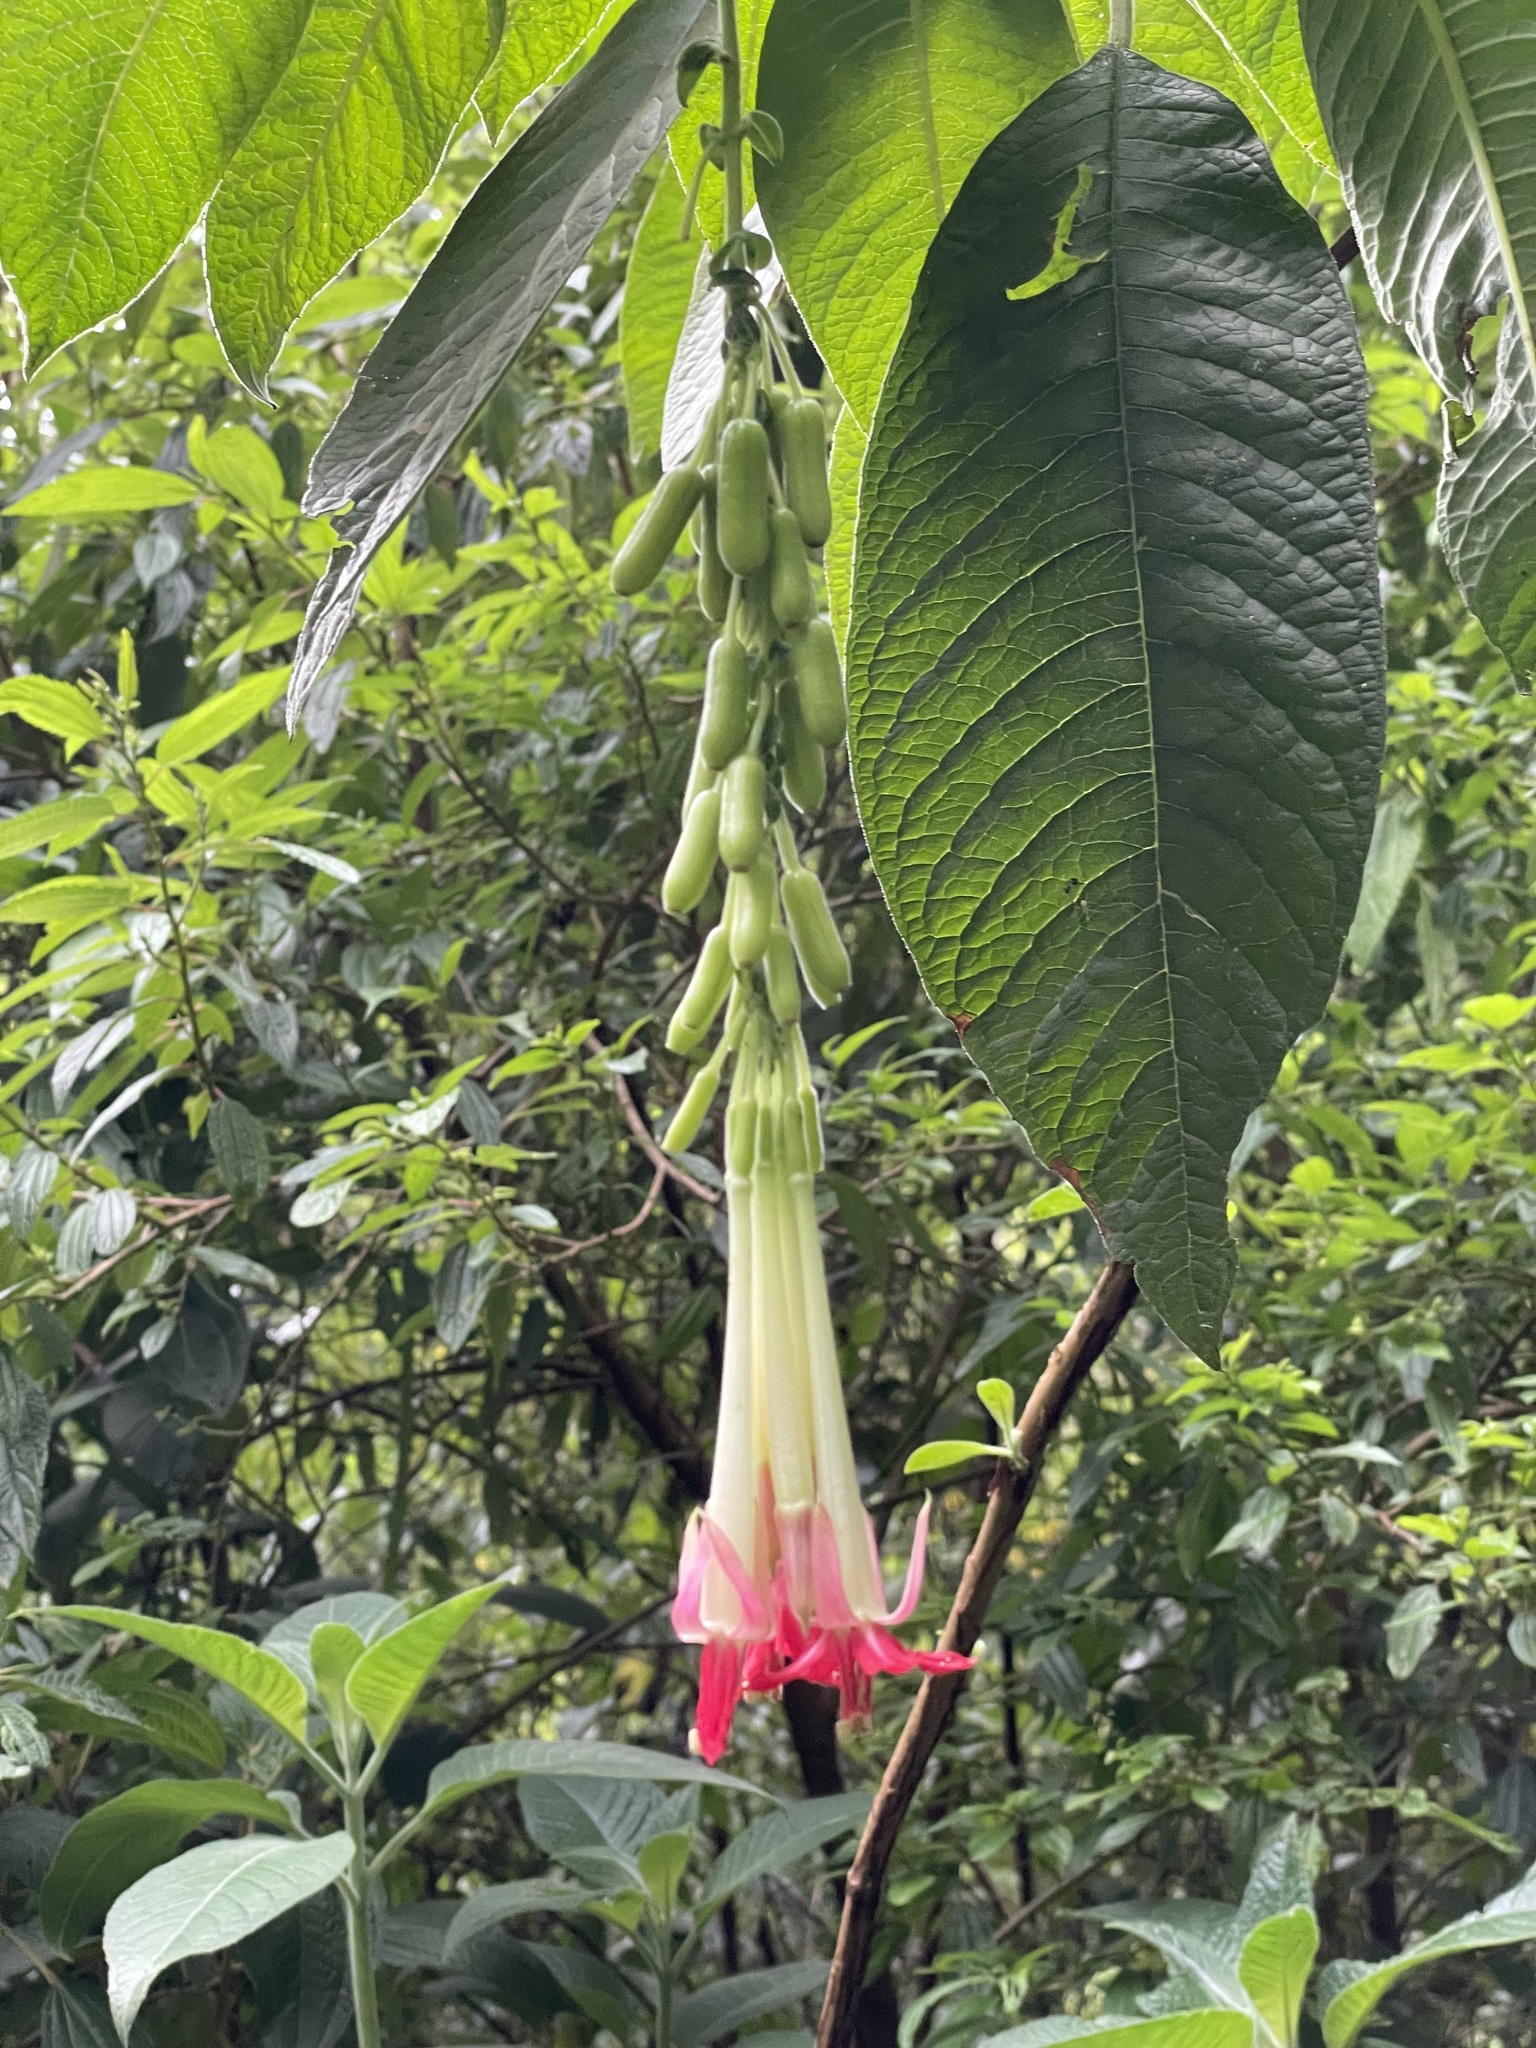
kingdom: Plantae
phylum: Tracheophyta
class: Magnoliopsida
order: Myrtales
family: Onagraceae
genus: Fuchsia
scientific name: Fuchsia boliviana
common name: Bolivian fuchsia
